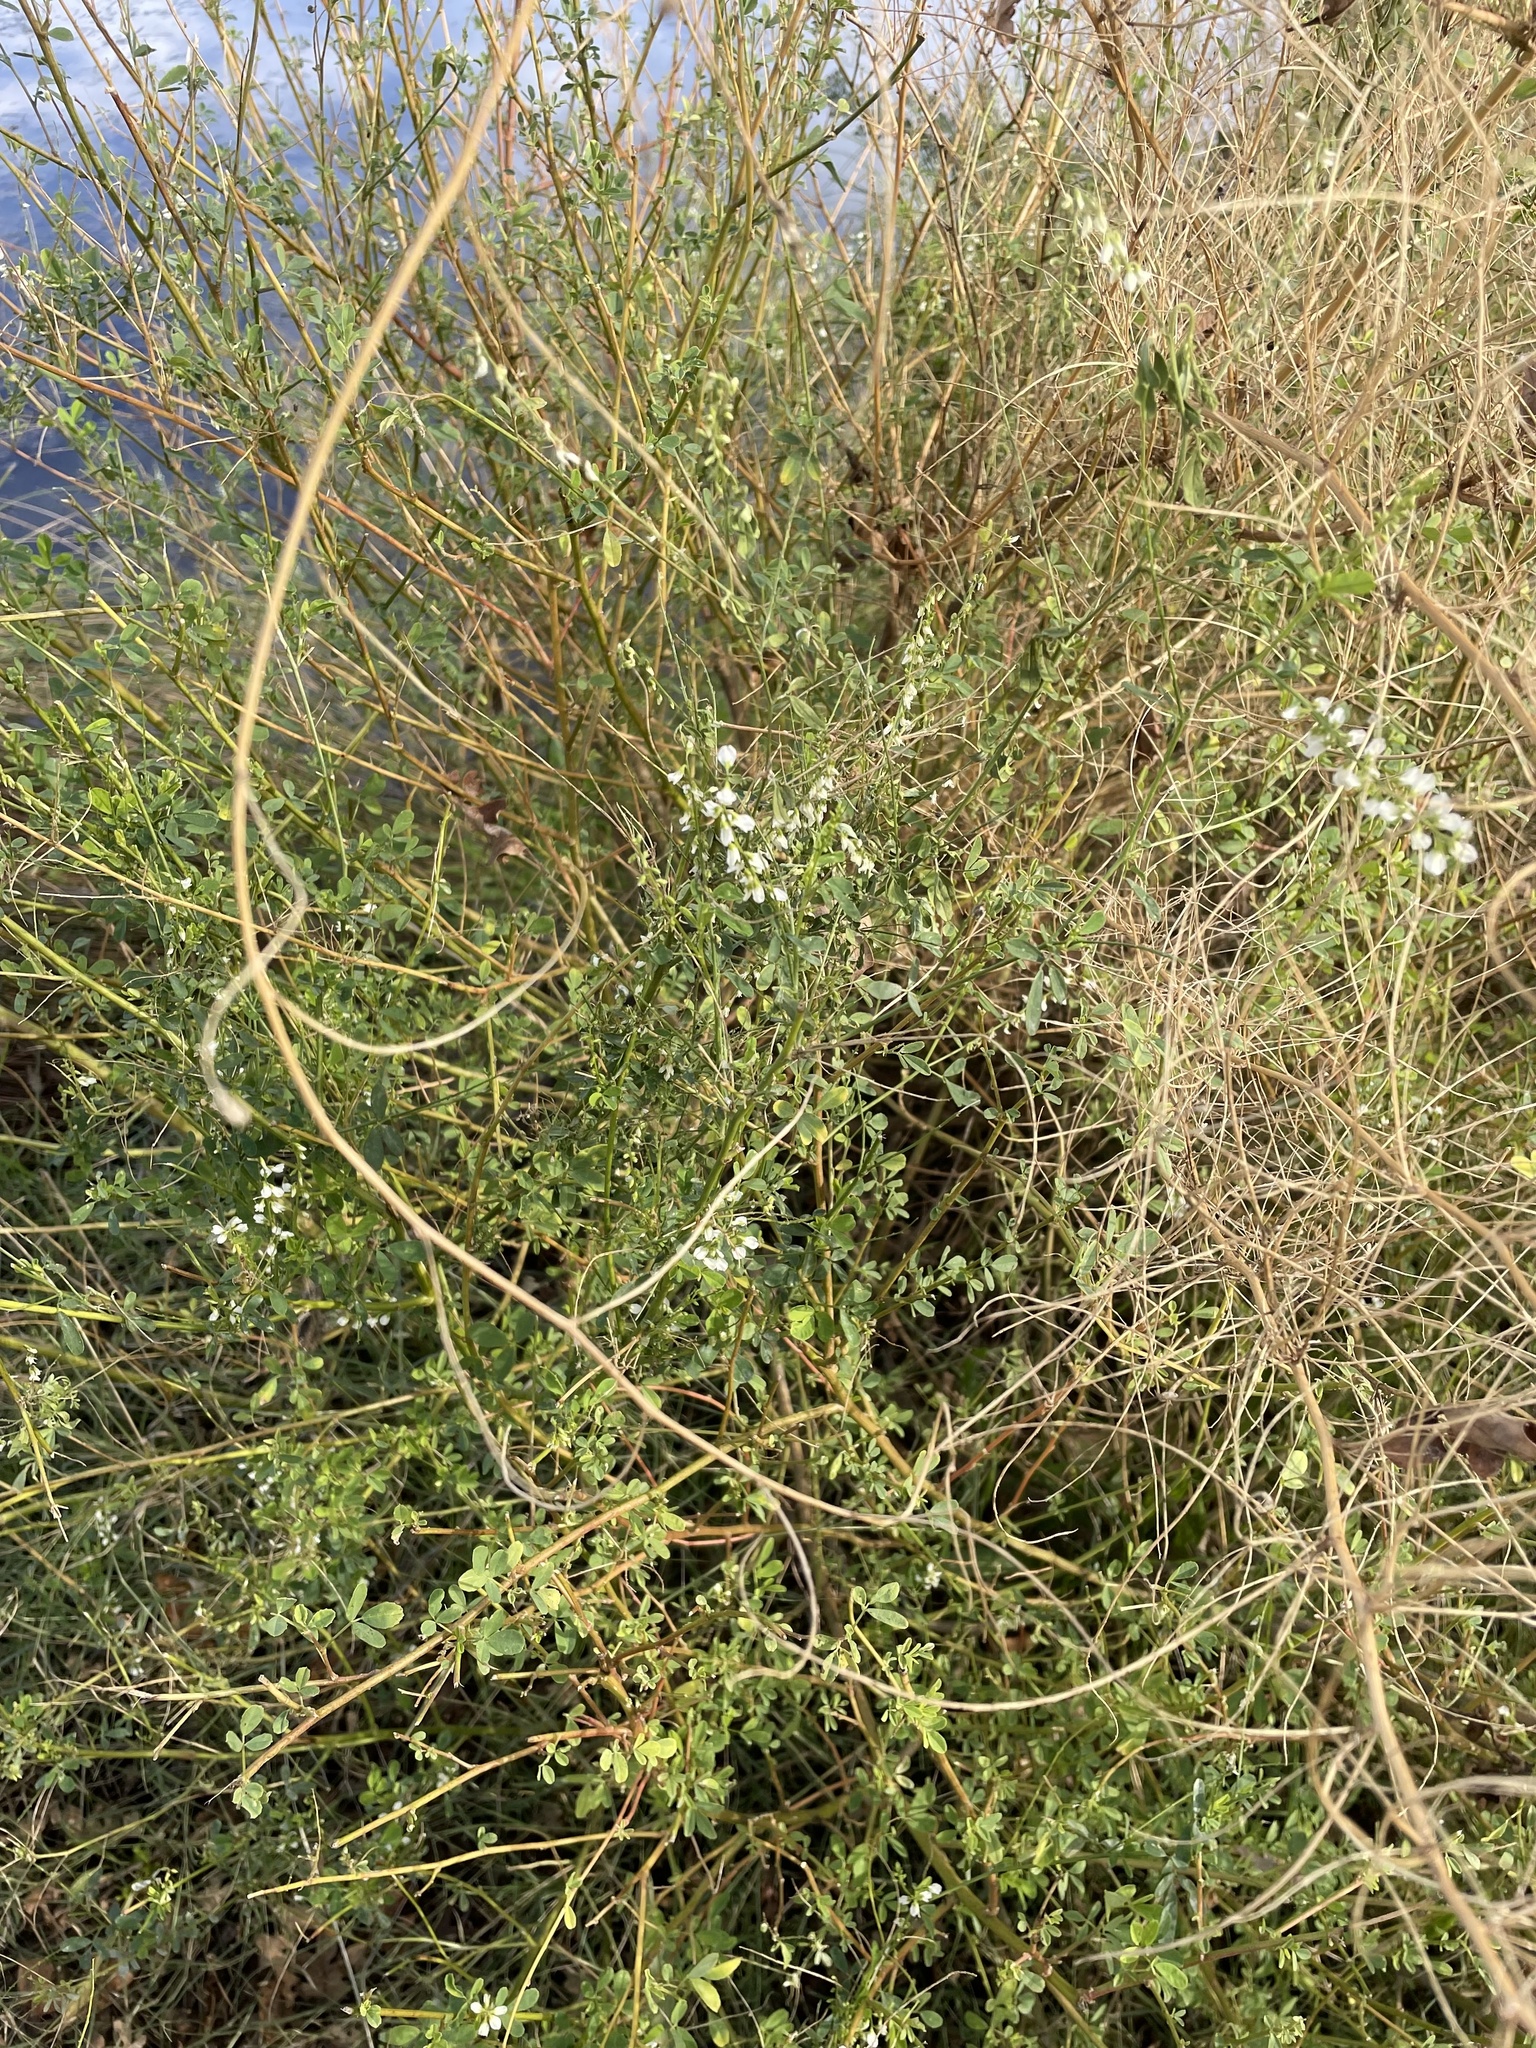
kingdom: Plantae
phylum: Tracheophyta
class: Magnoliopsida
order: Fabales
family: Fabaceae
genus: Melilotus
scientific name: Melilotus albus
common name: White melilot
